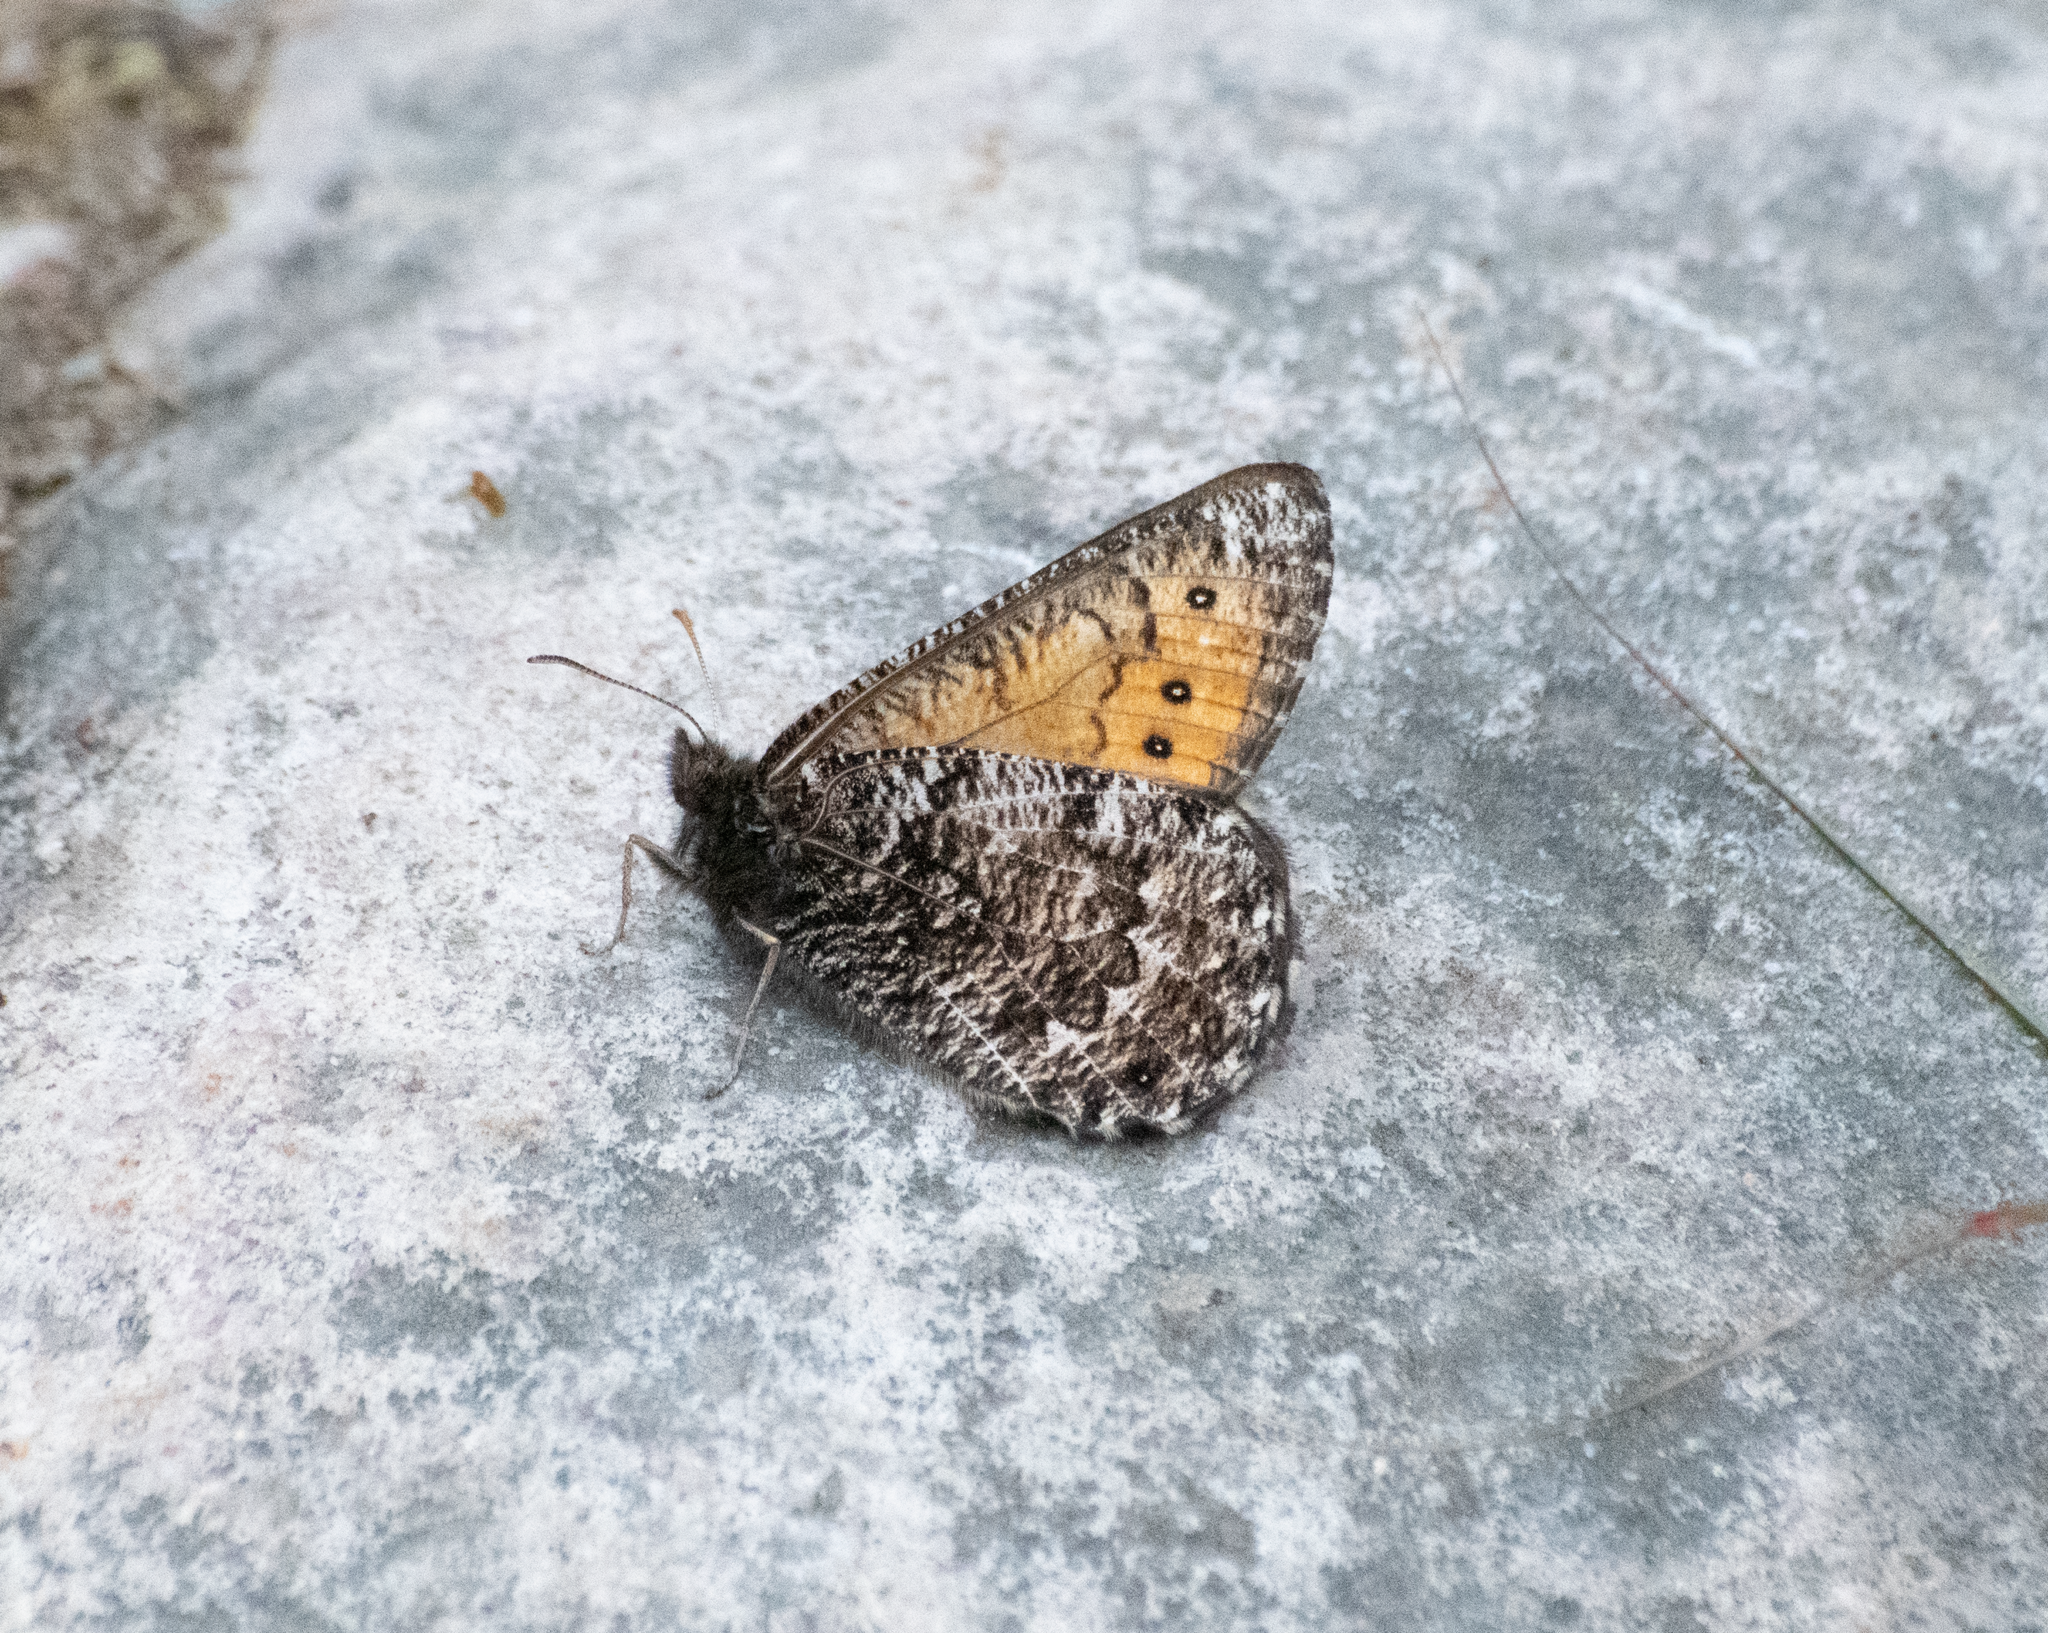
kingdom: Animalia
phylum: Arthropoda
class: Insecta
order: Lepidoptera
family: Nymphalidae
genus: Oeneis
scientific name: Oeneis chryxus
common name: Chryxus arctic
